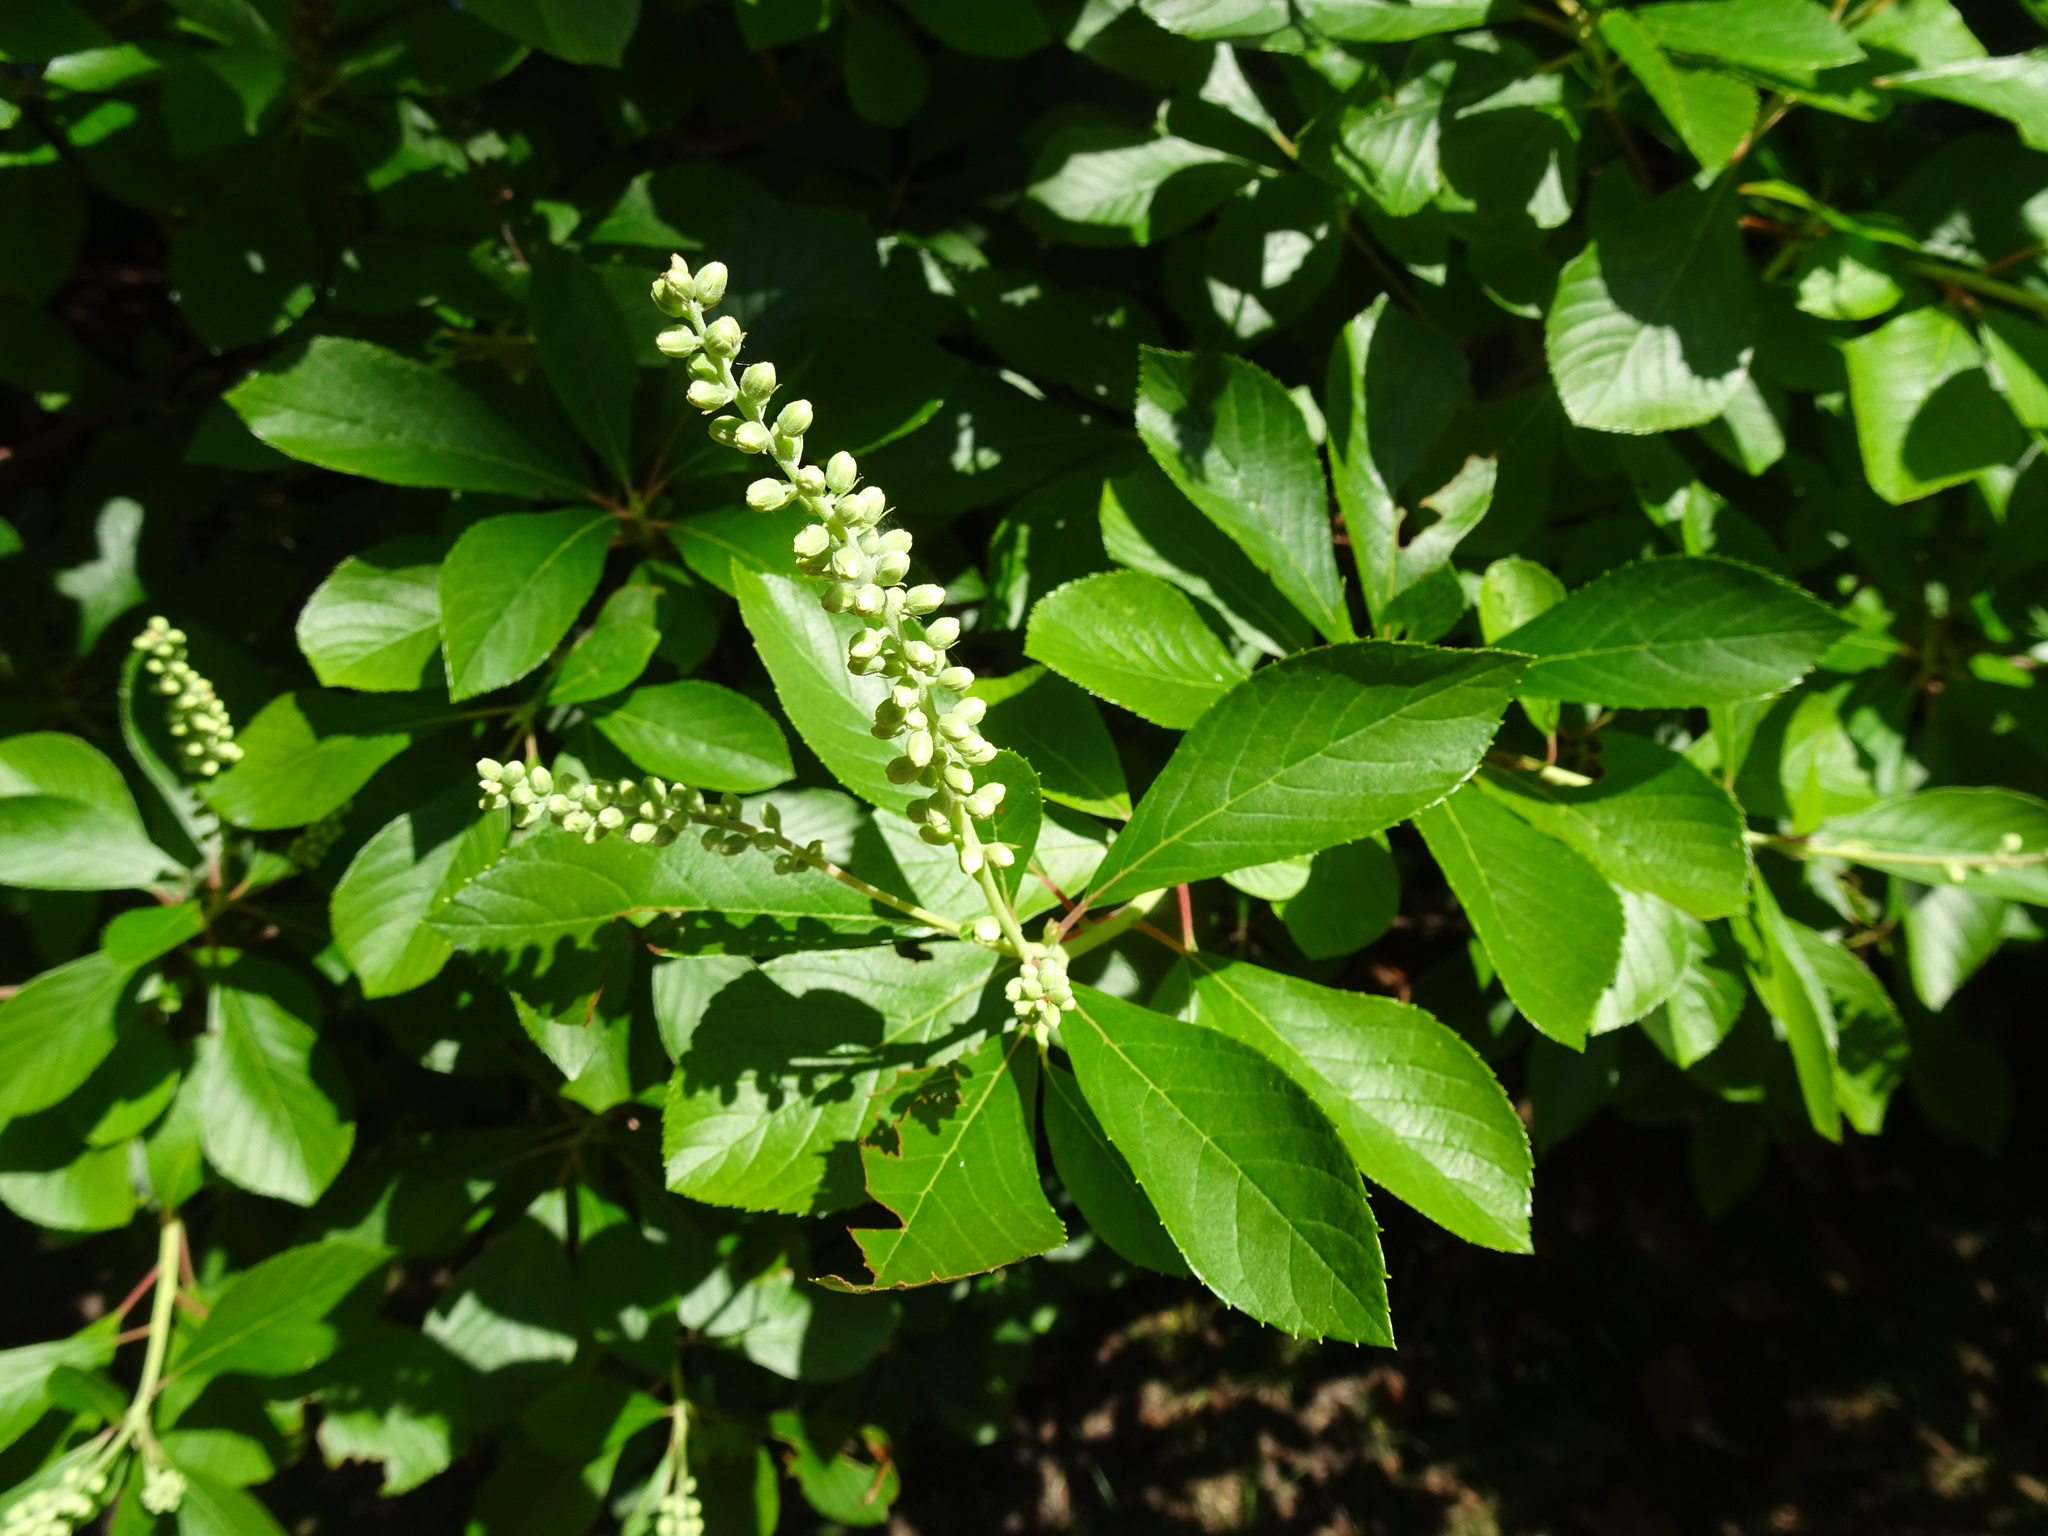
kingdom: Plantae
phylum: Tracheophyta
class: Magnoliopsida
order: Ericales
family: Clethraceae
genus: Clethra
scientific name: Clethra alnifolia
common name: Sweet pepperbush
